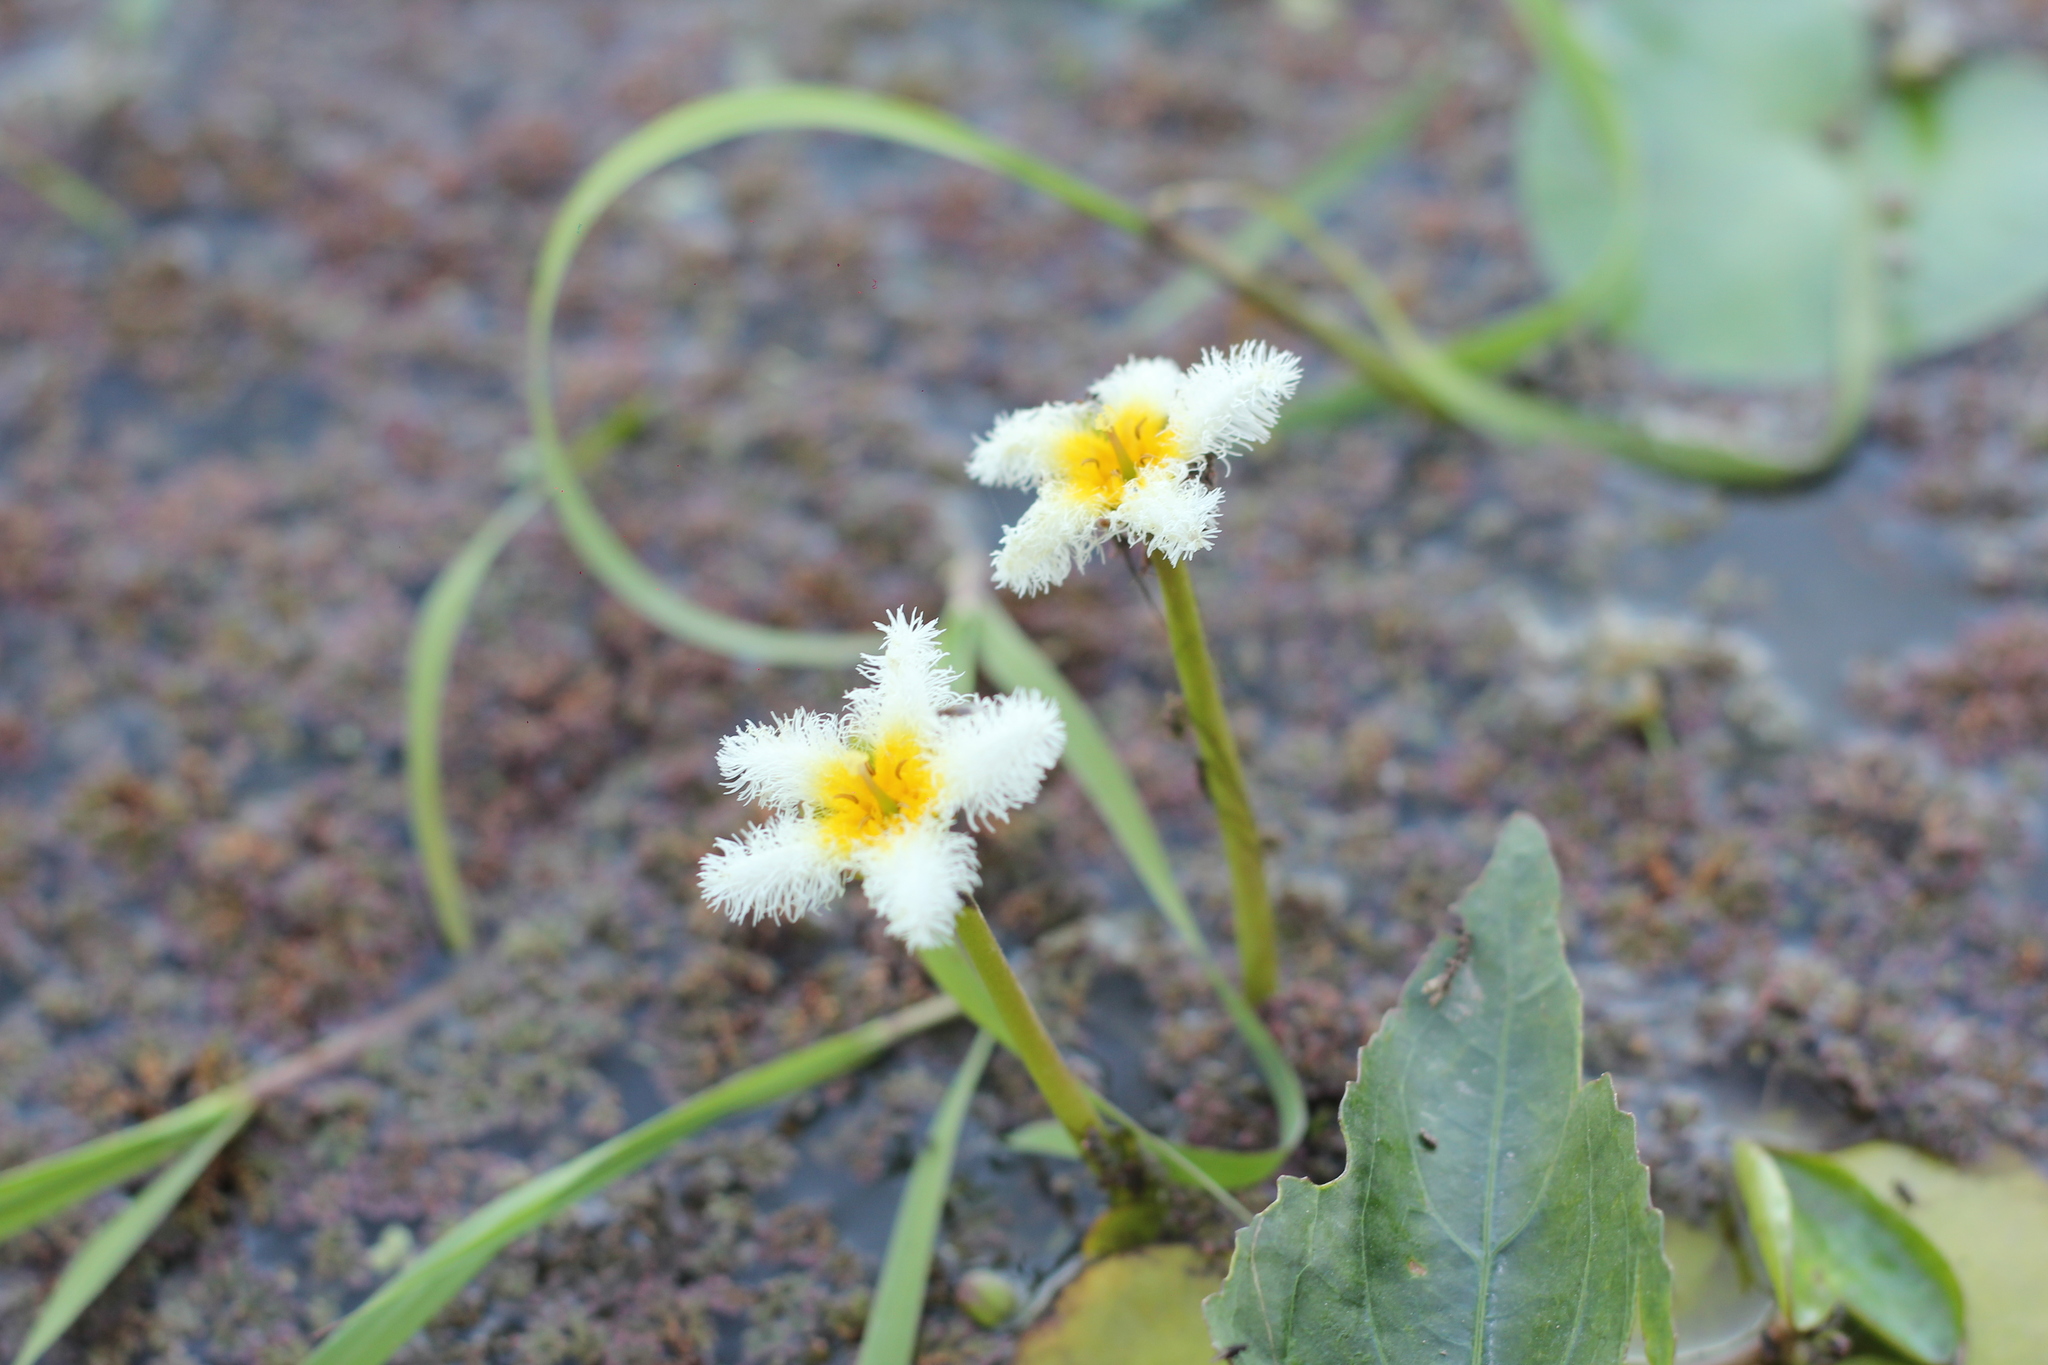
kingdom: Plantae
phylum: Tracheophyta
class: Magnoliopsida
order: Asterales
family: Menyanthaceae
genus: Nymphoides
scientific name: Nymphoides humboldtiana
